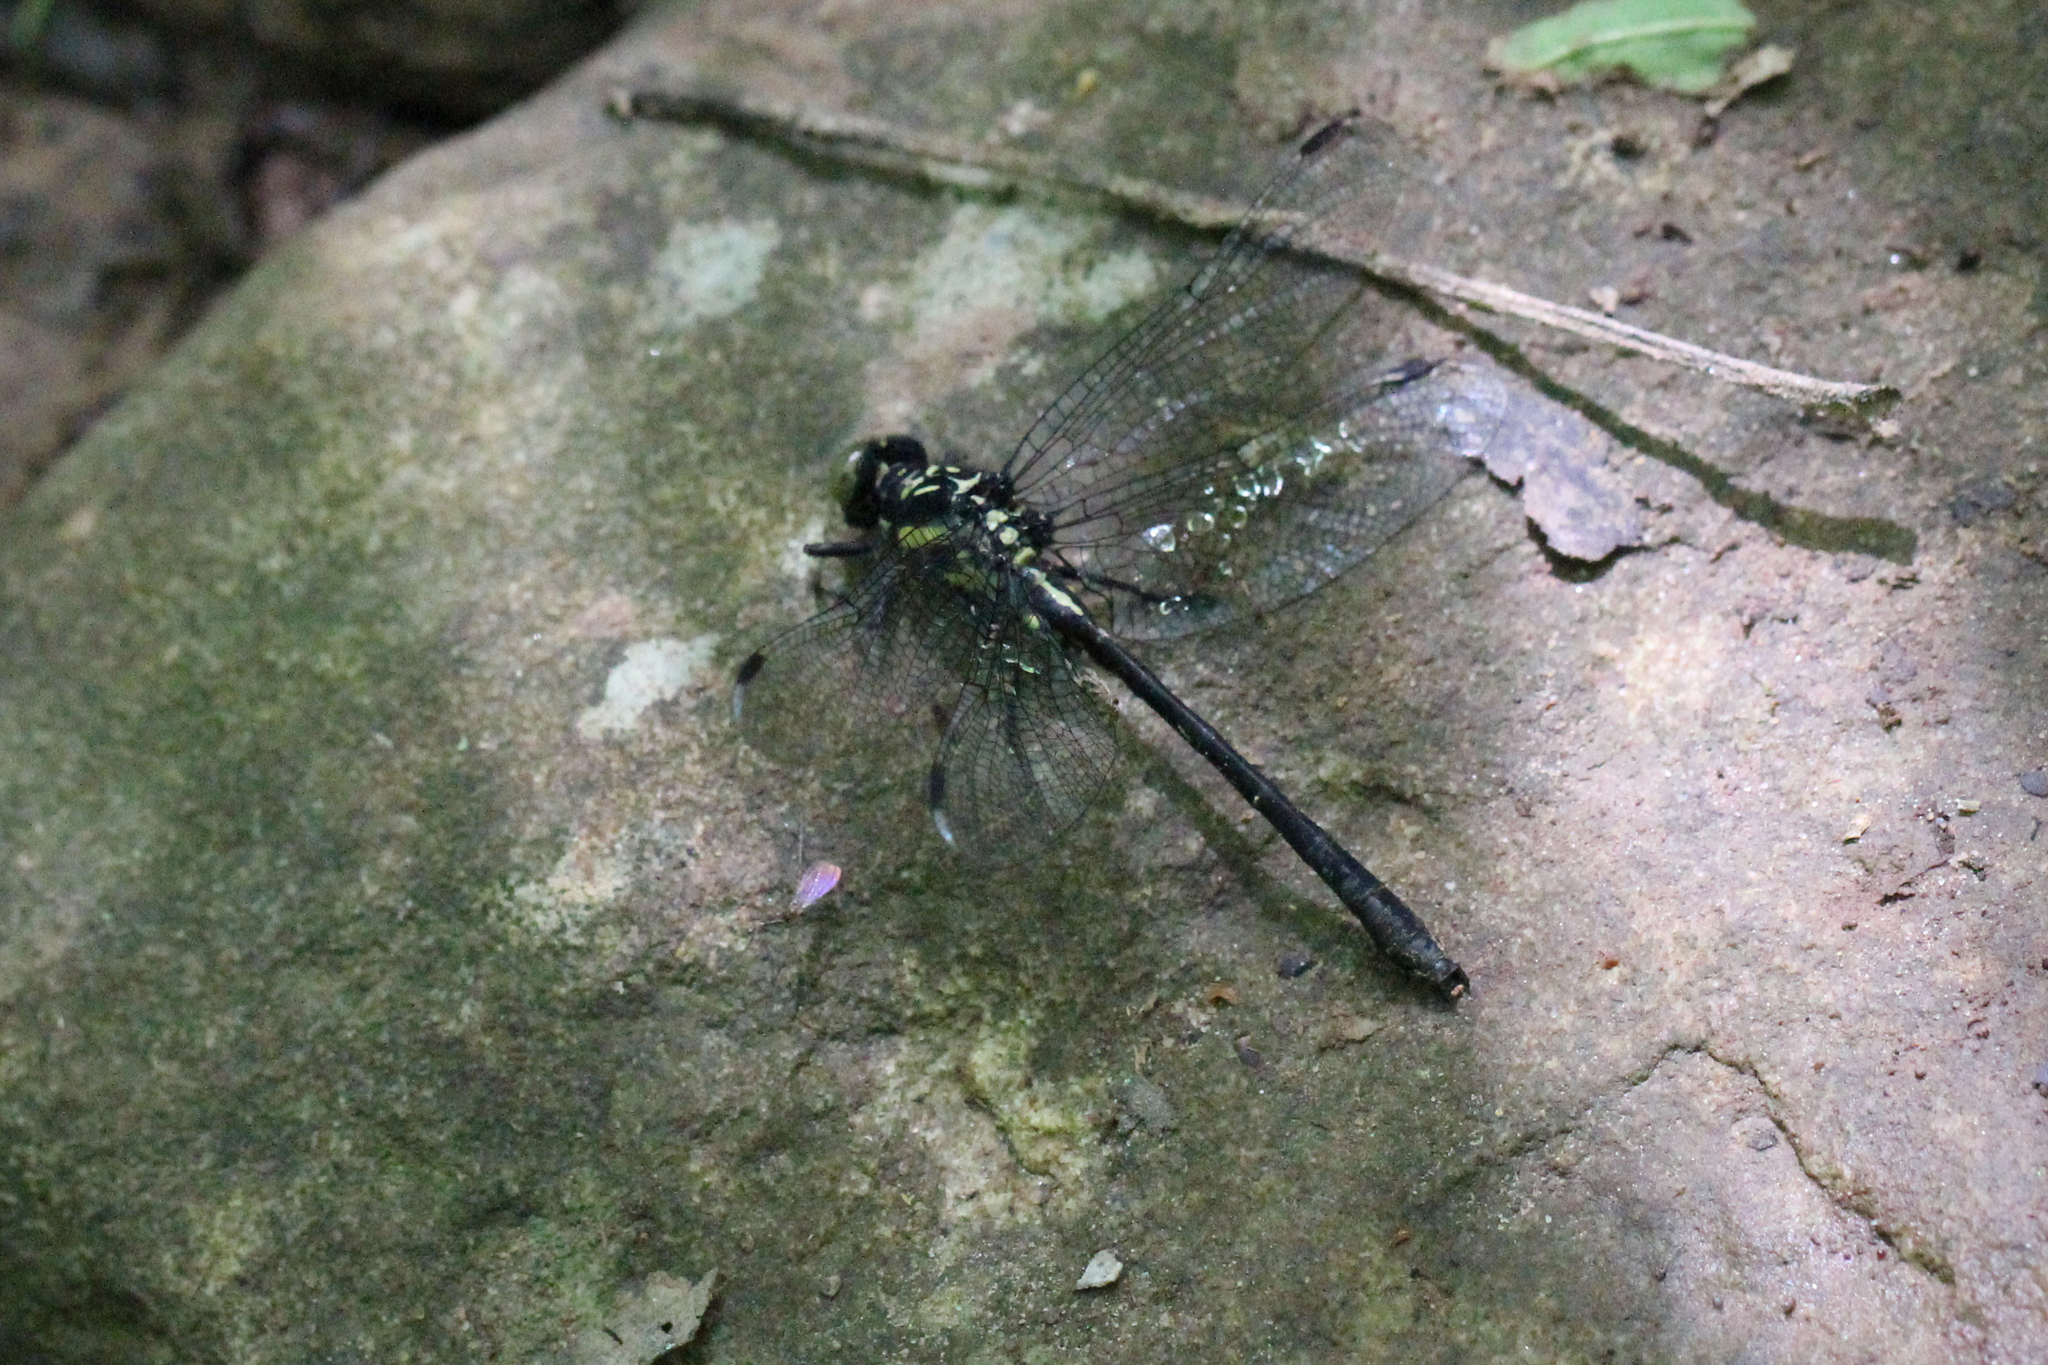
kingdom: Animalia
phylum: Arthropoda
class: Insecta
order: Odonata
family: Gomphidae
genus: Lanthus
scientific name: Lanthus parvulus
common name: Northern pygmy clubtail
